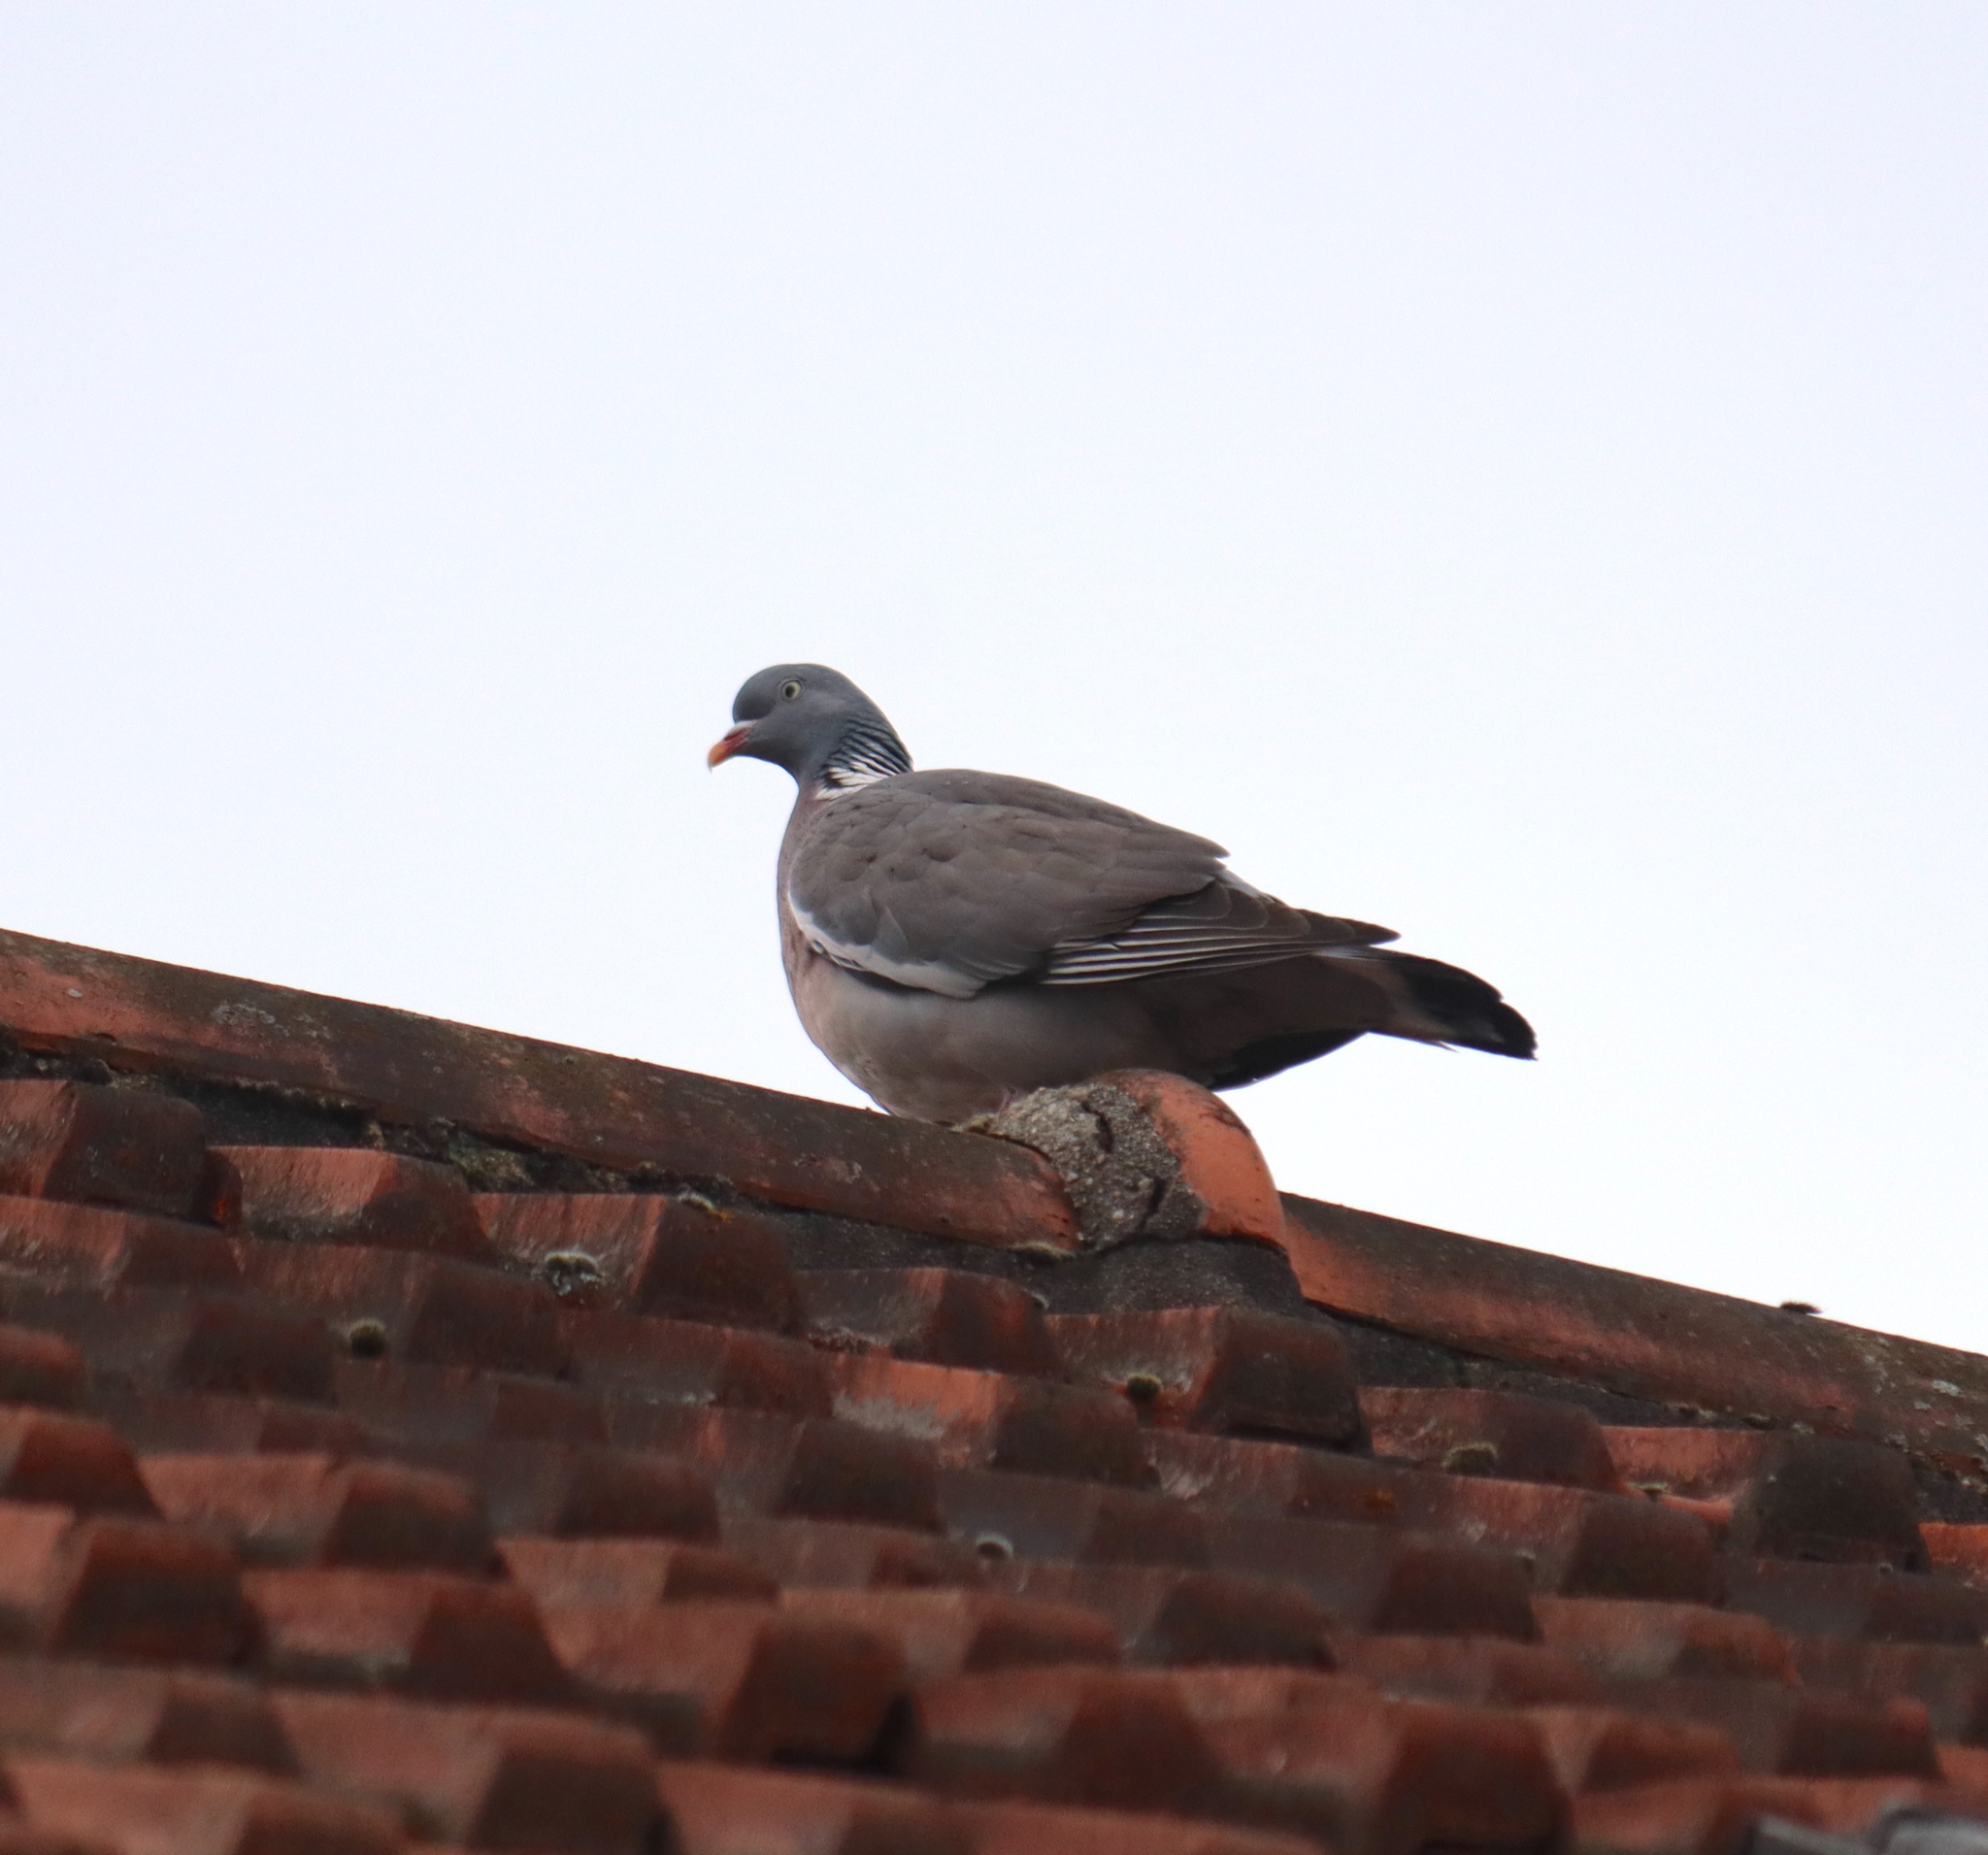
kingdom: Animalia
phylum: Chordata
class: Aves
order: Columbiformes
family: Columbidae
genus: Columba
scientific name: Columba palumbus
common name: Common wood pigeon
